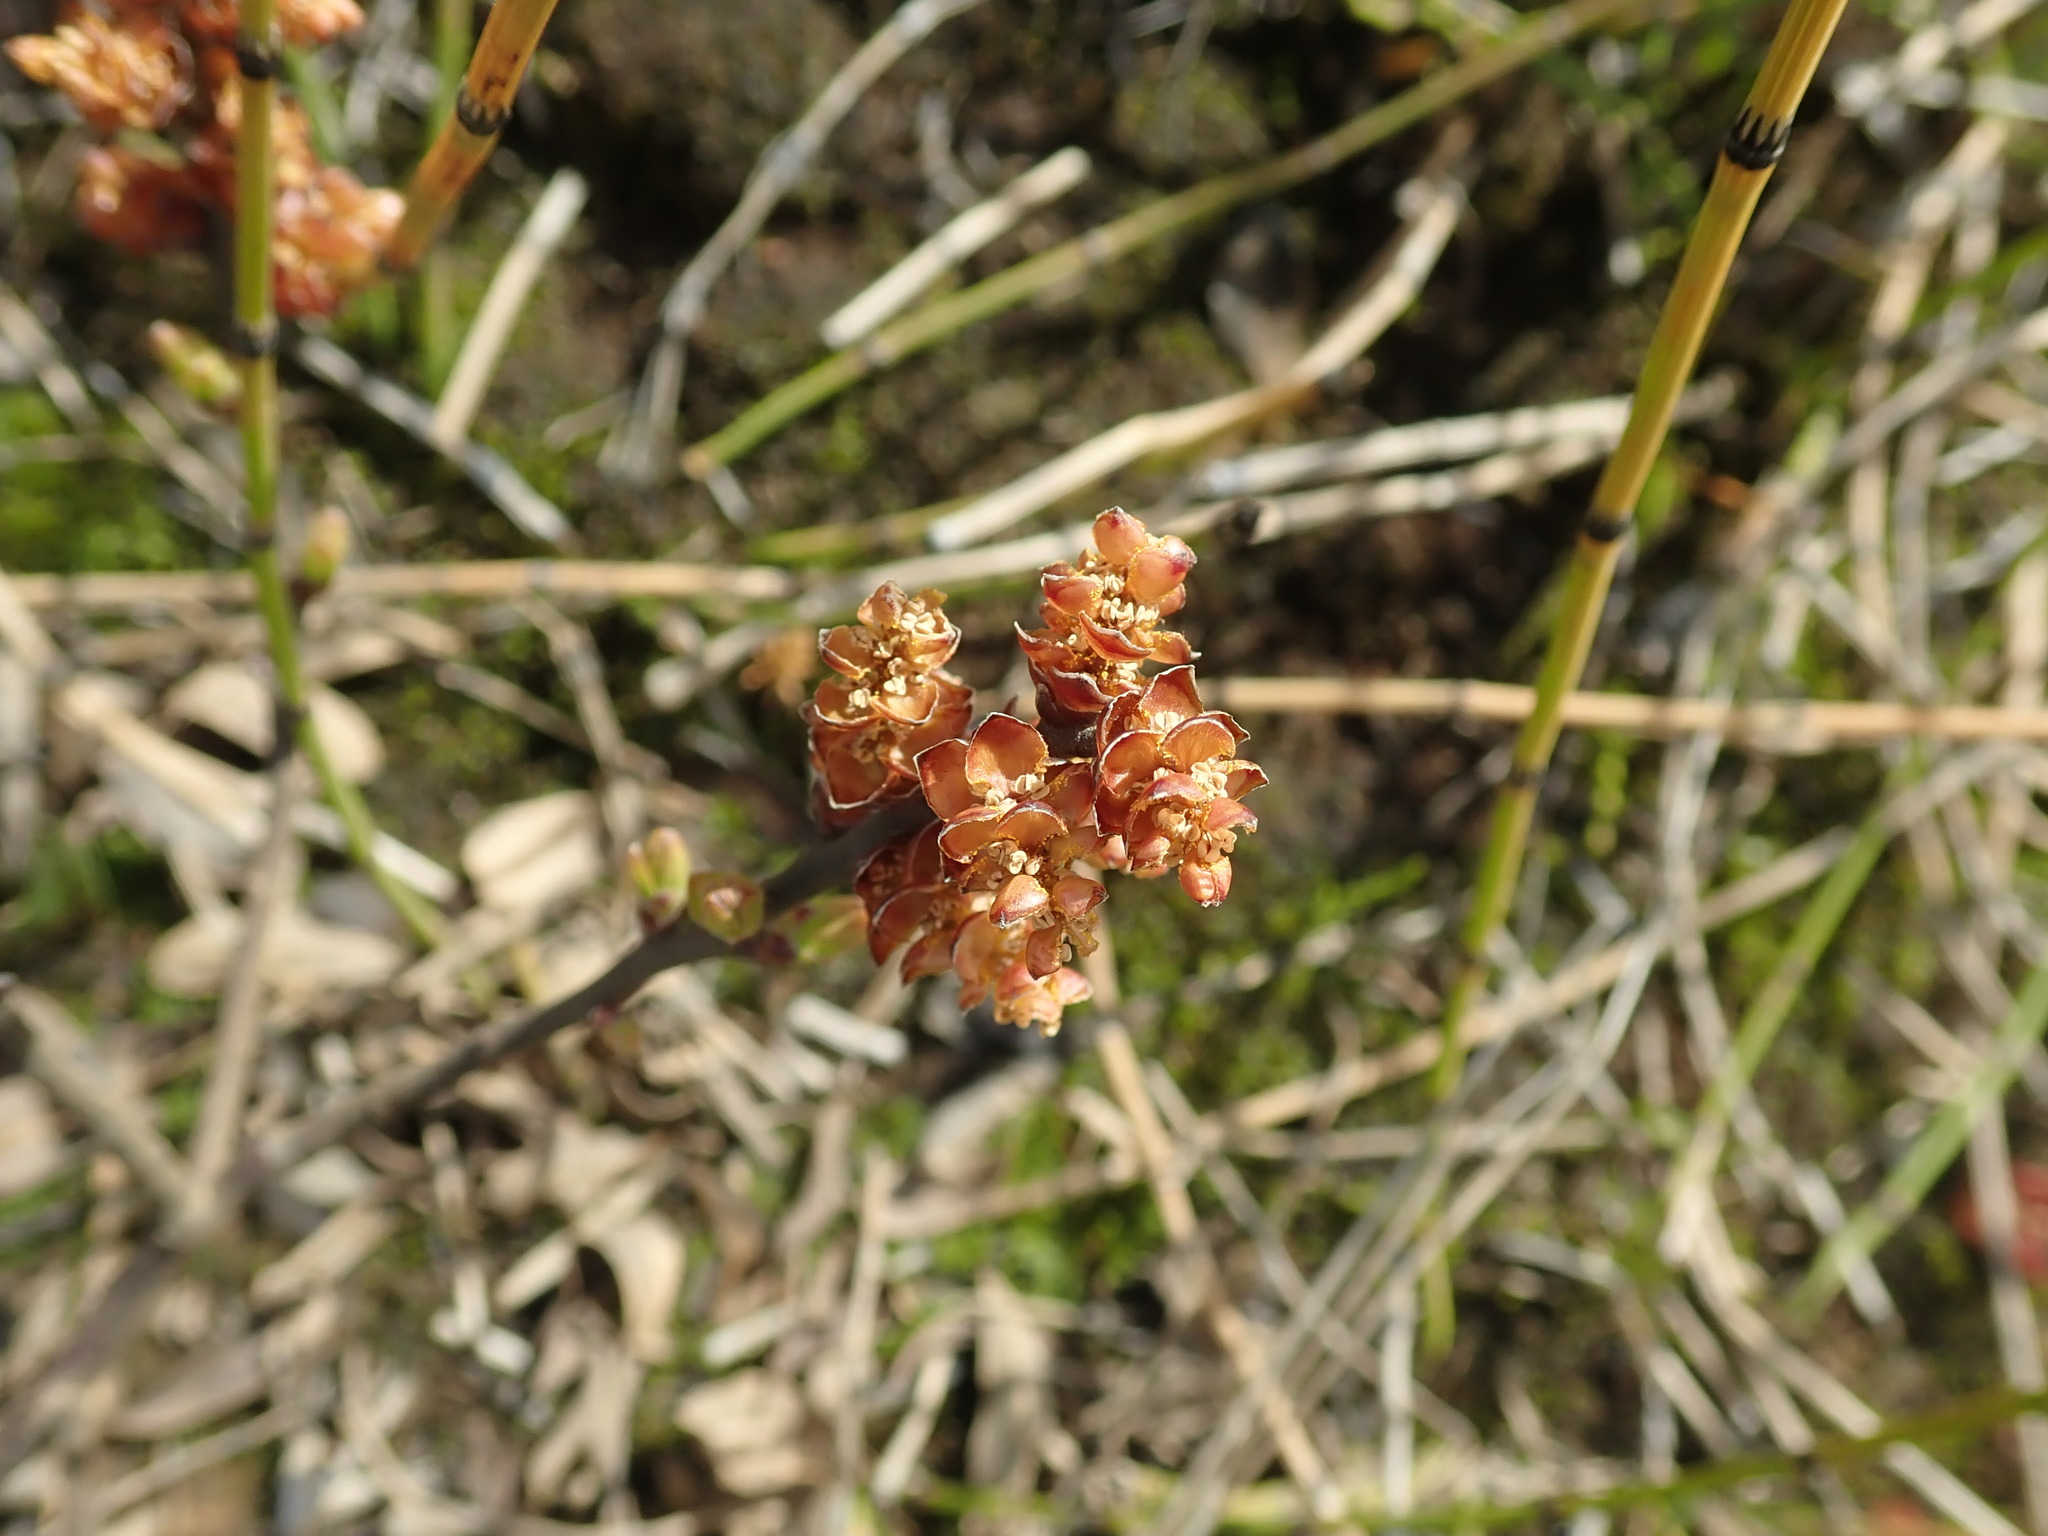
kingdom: Plantae
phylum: Tracheophyta
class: Magnoliopsida
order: Fagales
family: Myricaceae
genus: Myrica
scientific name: Myrica gale
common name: Sweet gale
